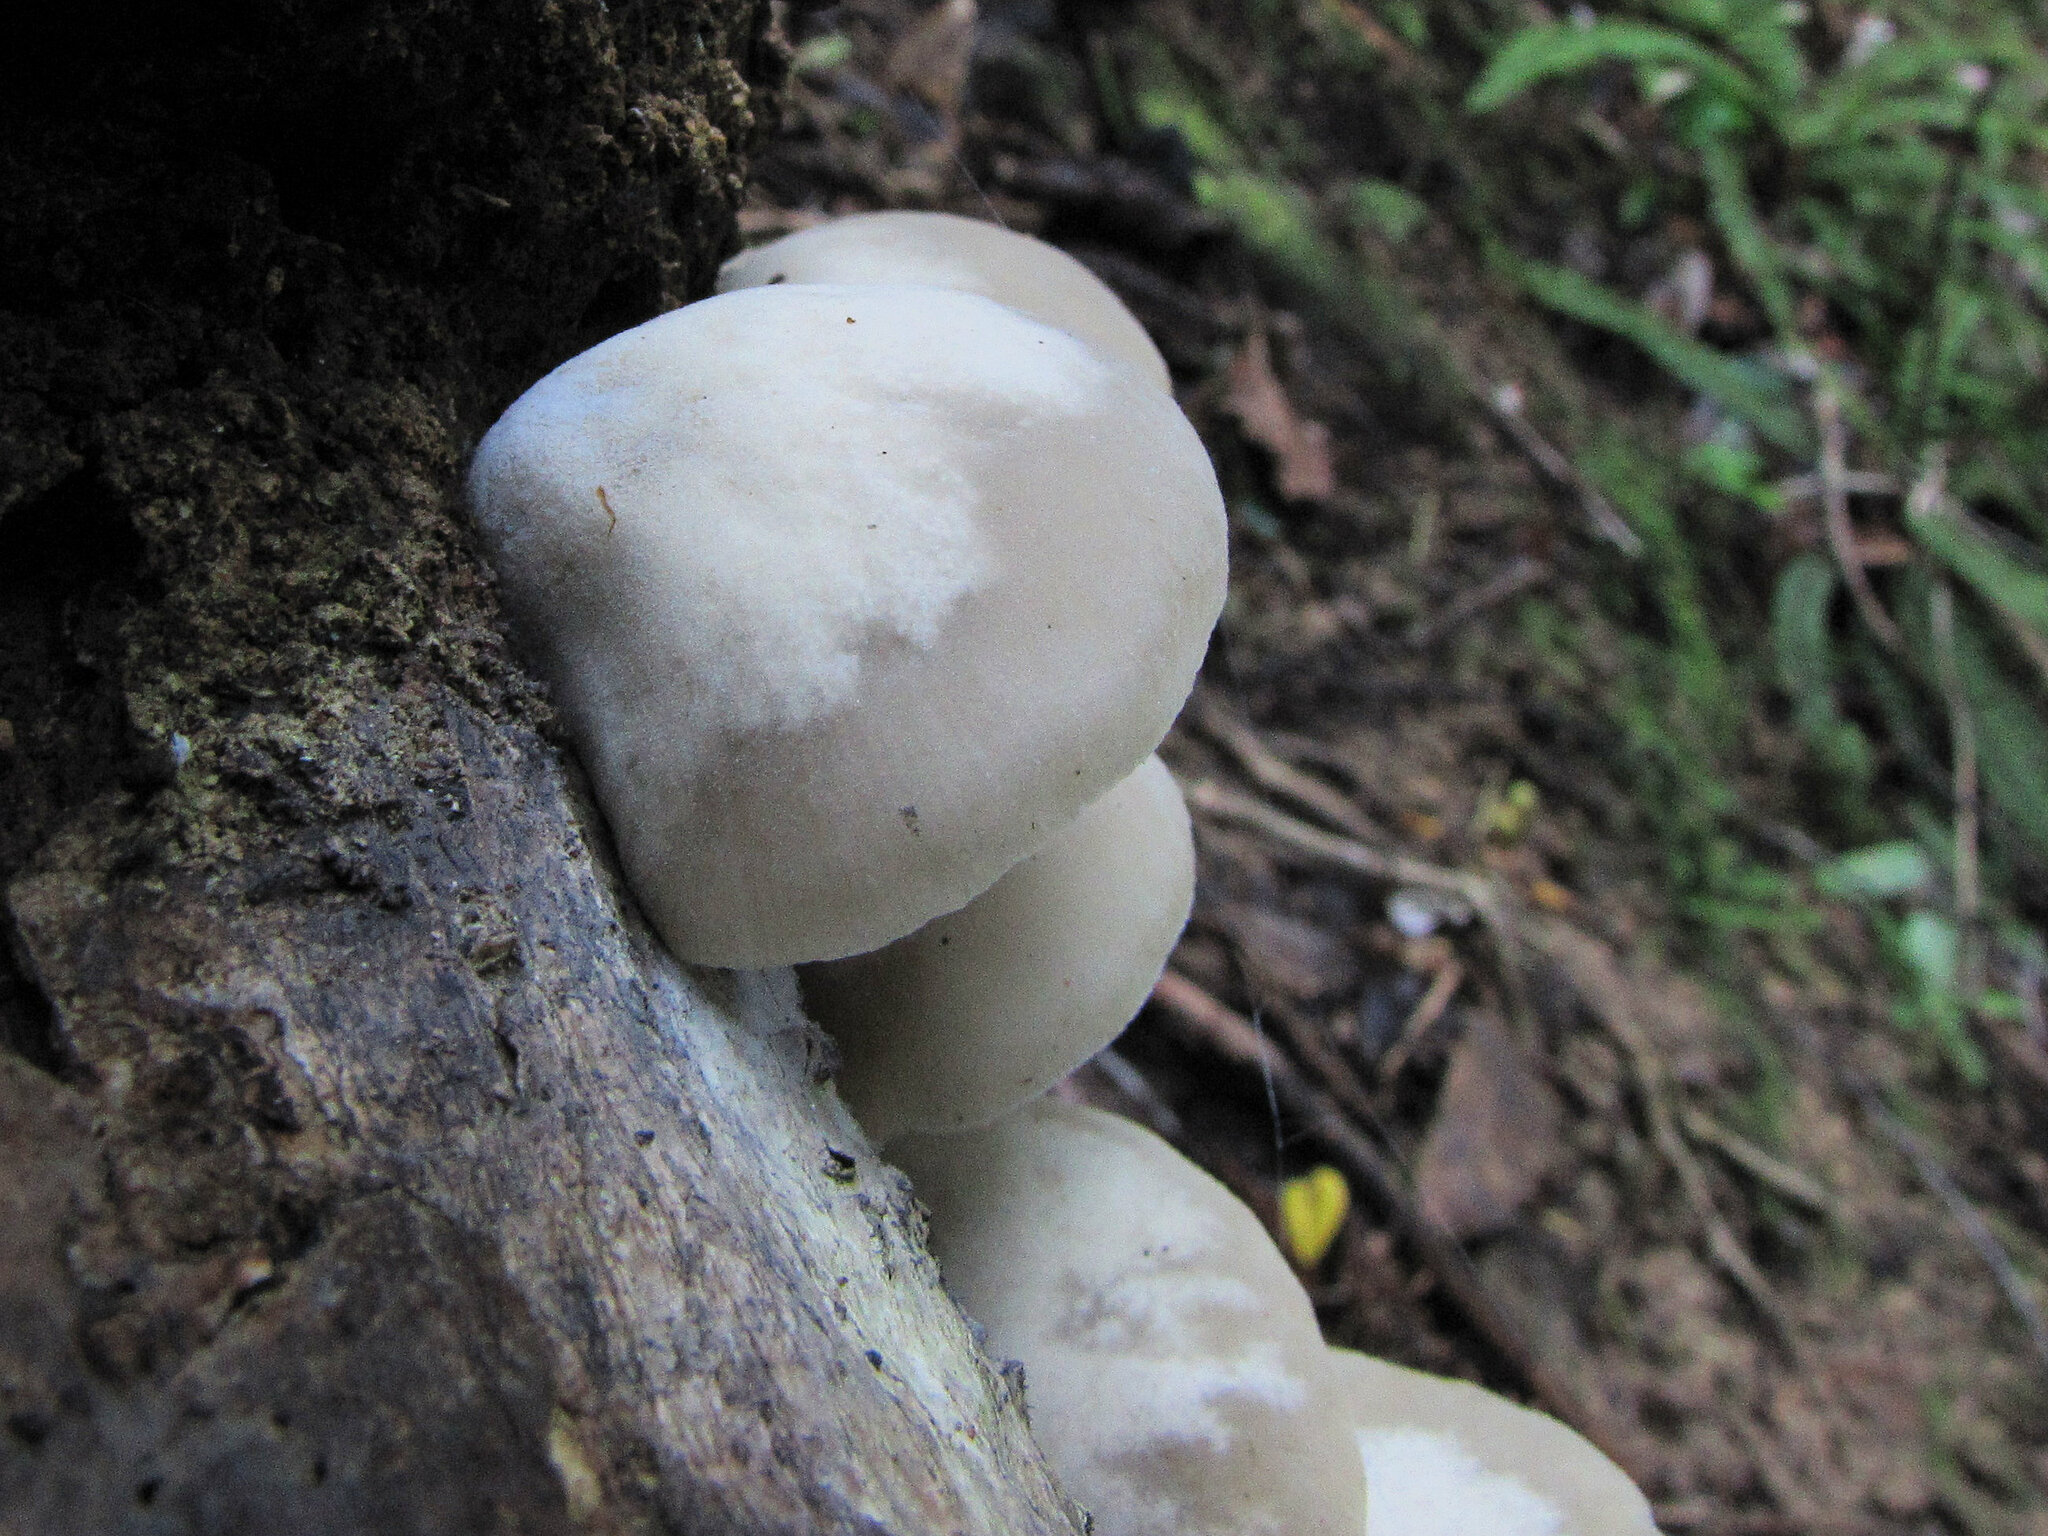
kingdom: Fungi
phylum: Basidiomycota
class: Agaricomycetes
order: Agaricales
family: Tricholomataceae
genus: Conchomyces
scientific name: Conchomyces bursiformis
